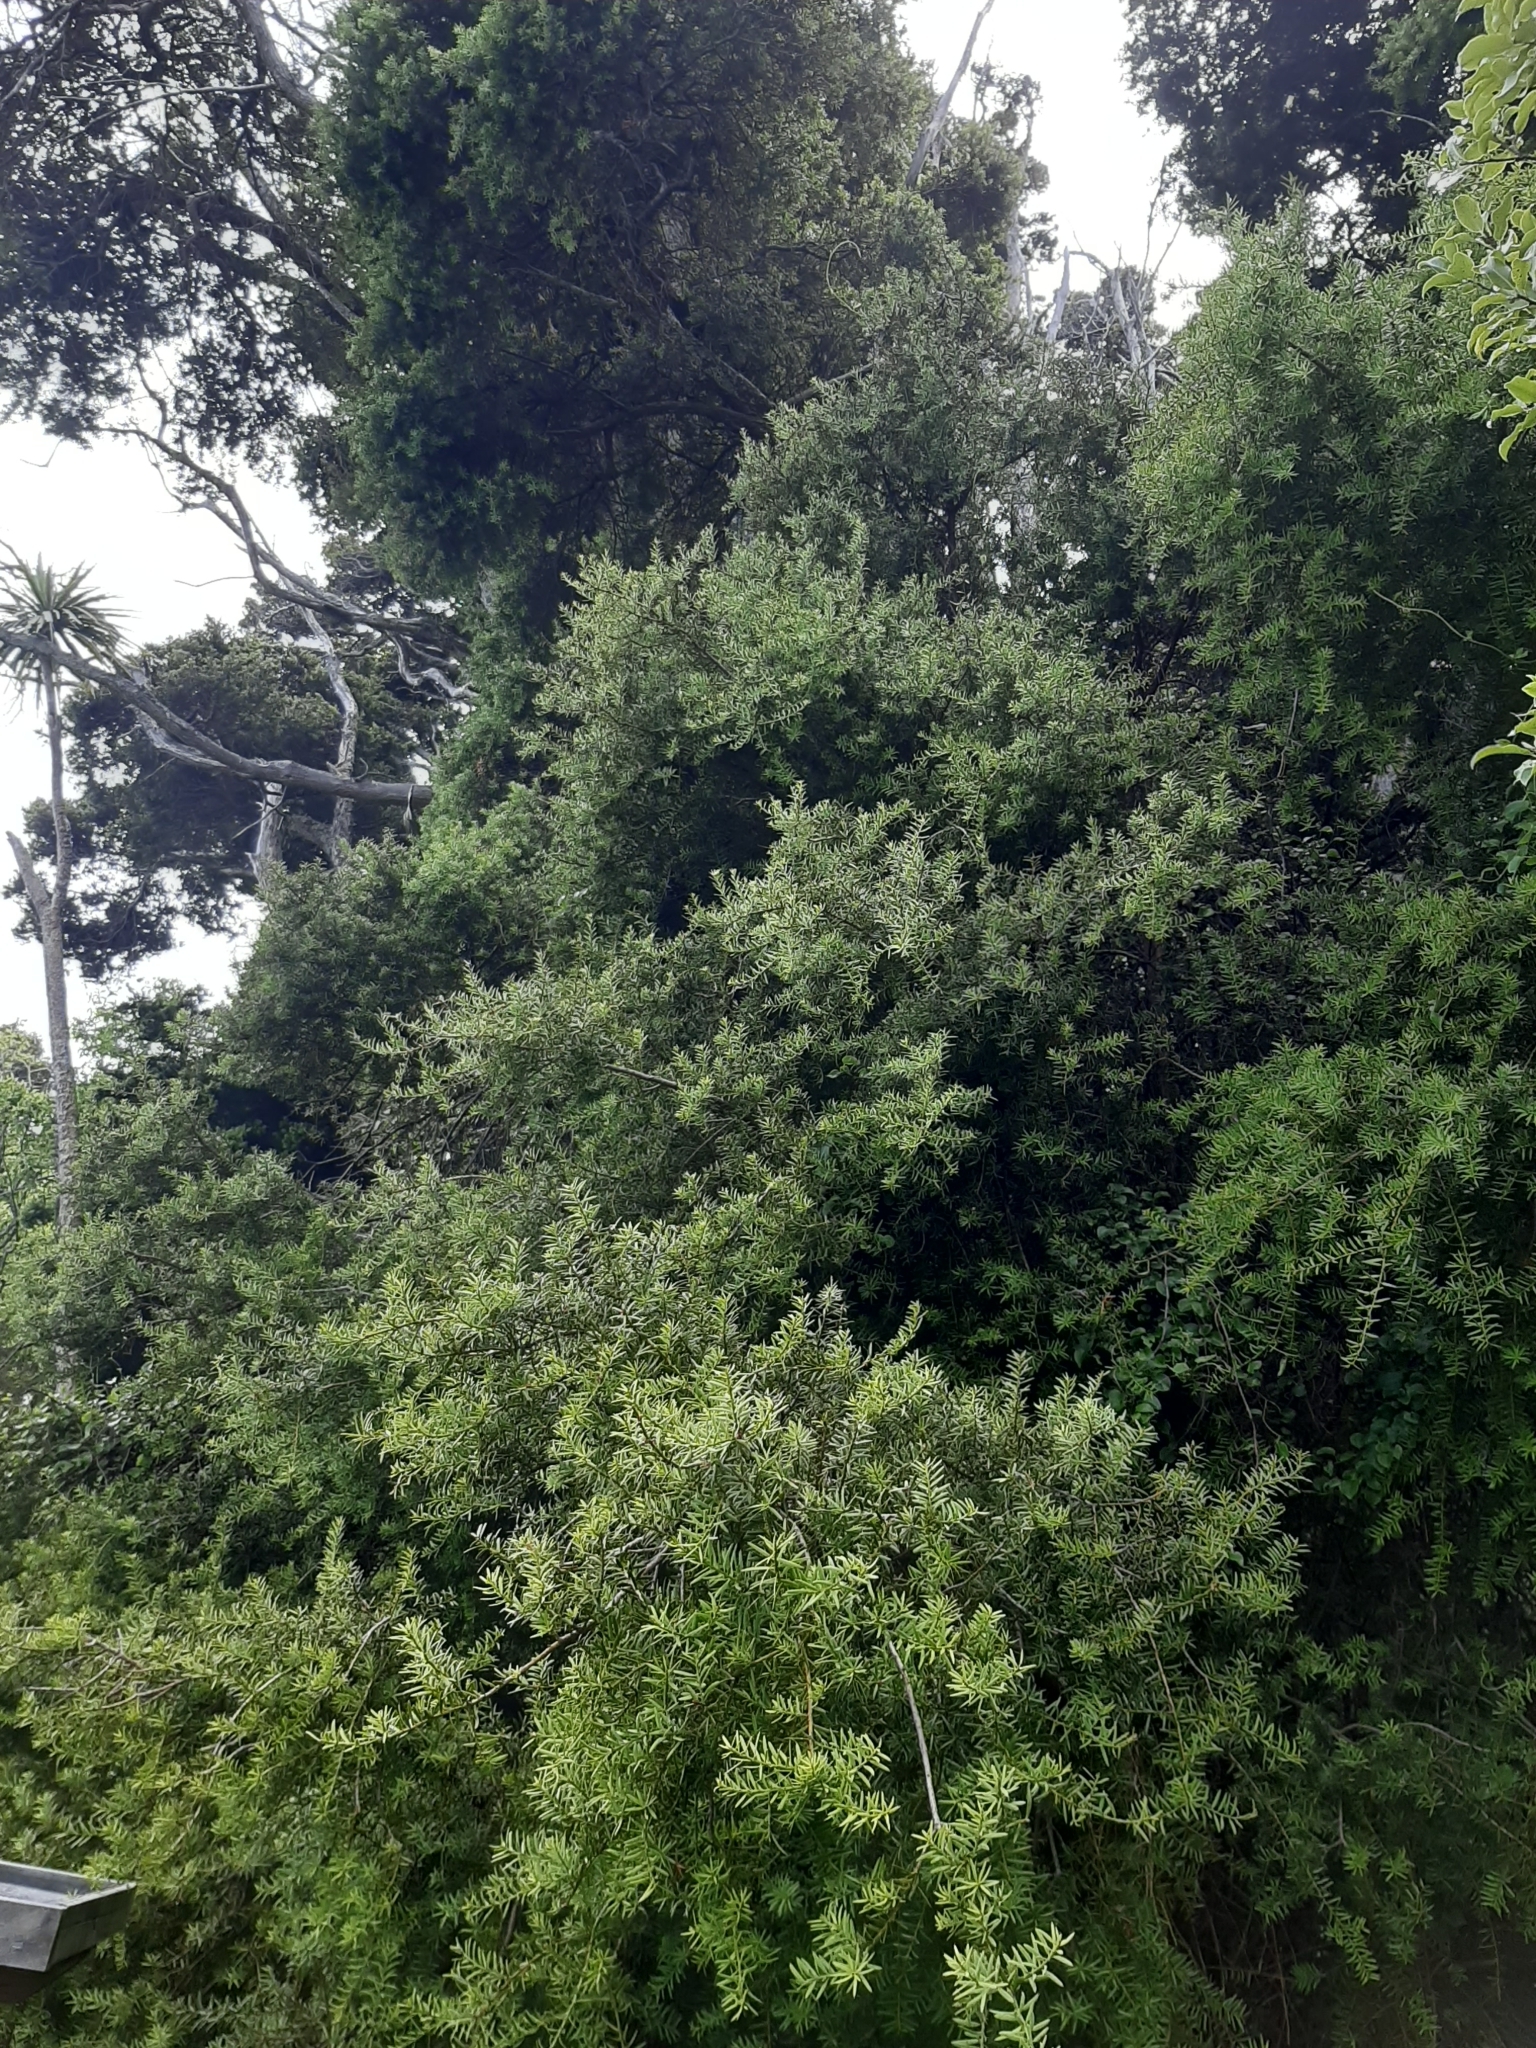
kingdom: Plantae
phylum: Tracheophyta
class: Pinopsida
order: Pinales
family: Podocarpaceae
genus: Podocarpus
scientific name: Podocarpus totara
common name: Totara
